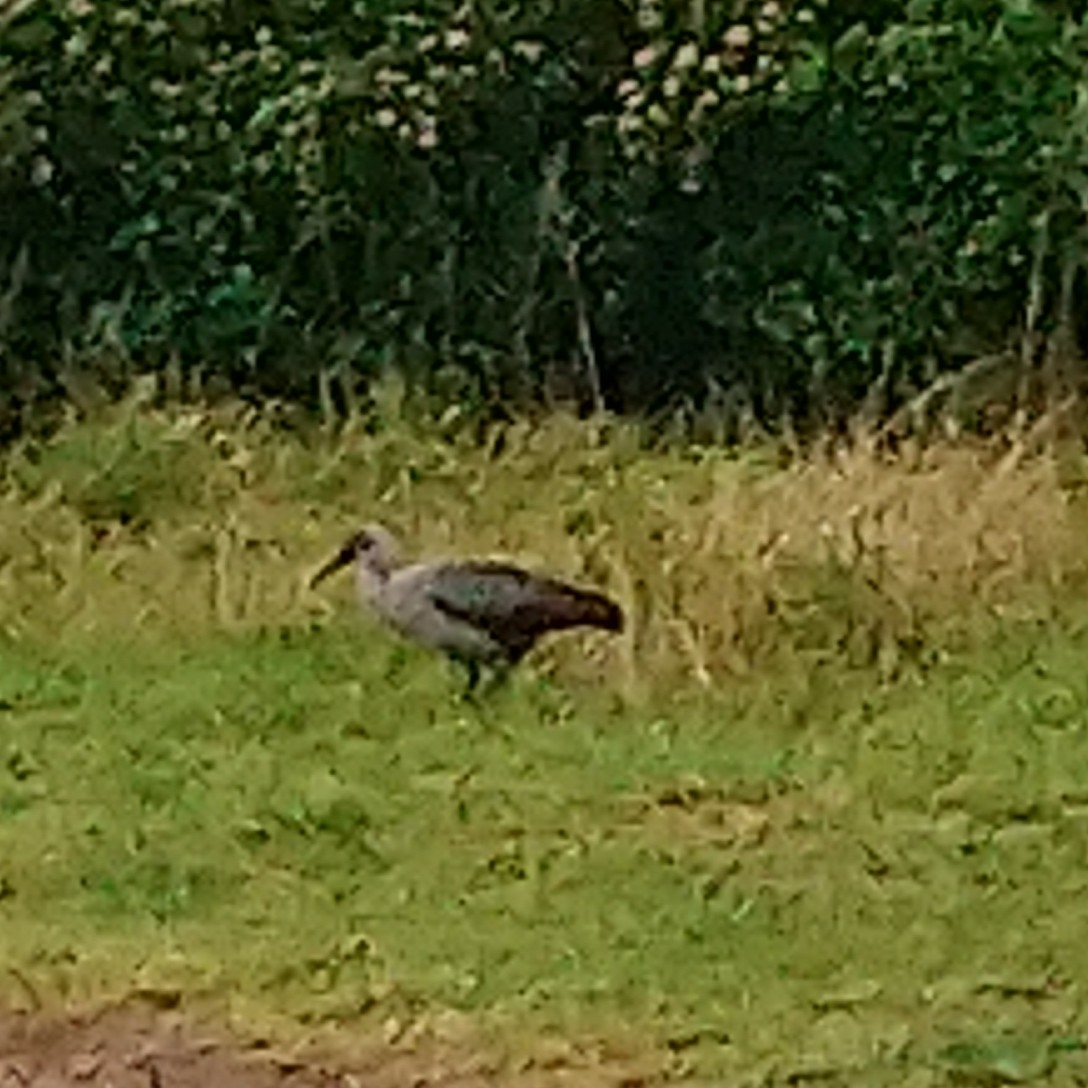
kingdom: Animalia
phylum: Chordata
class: Aves
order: Pelecaniformes
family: Threskiornithidae
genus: Bostrychia
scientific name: Bostrychia hagedash
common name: Hadada ibis
